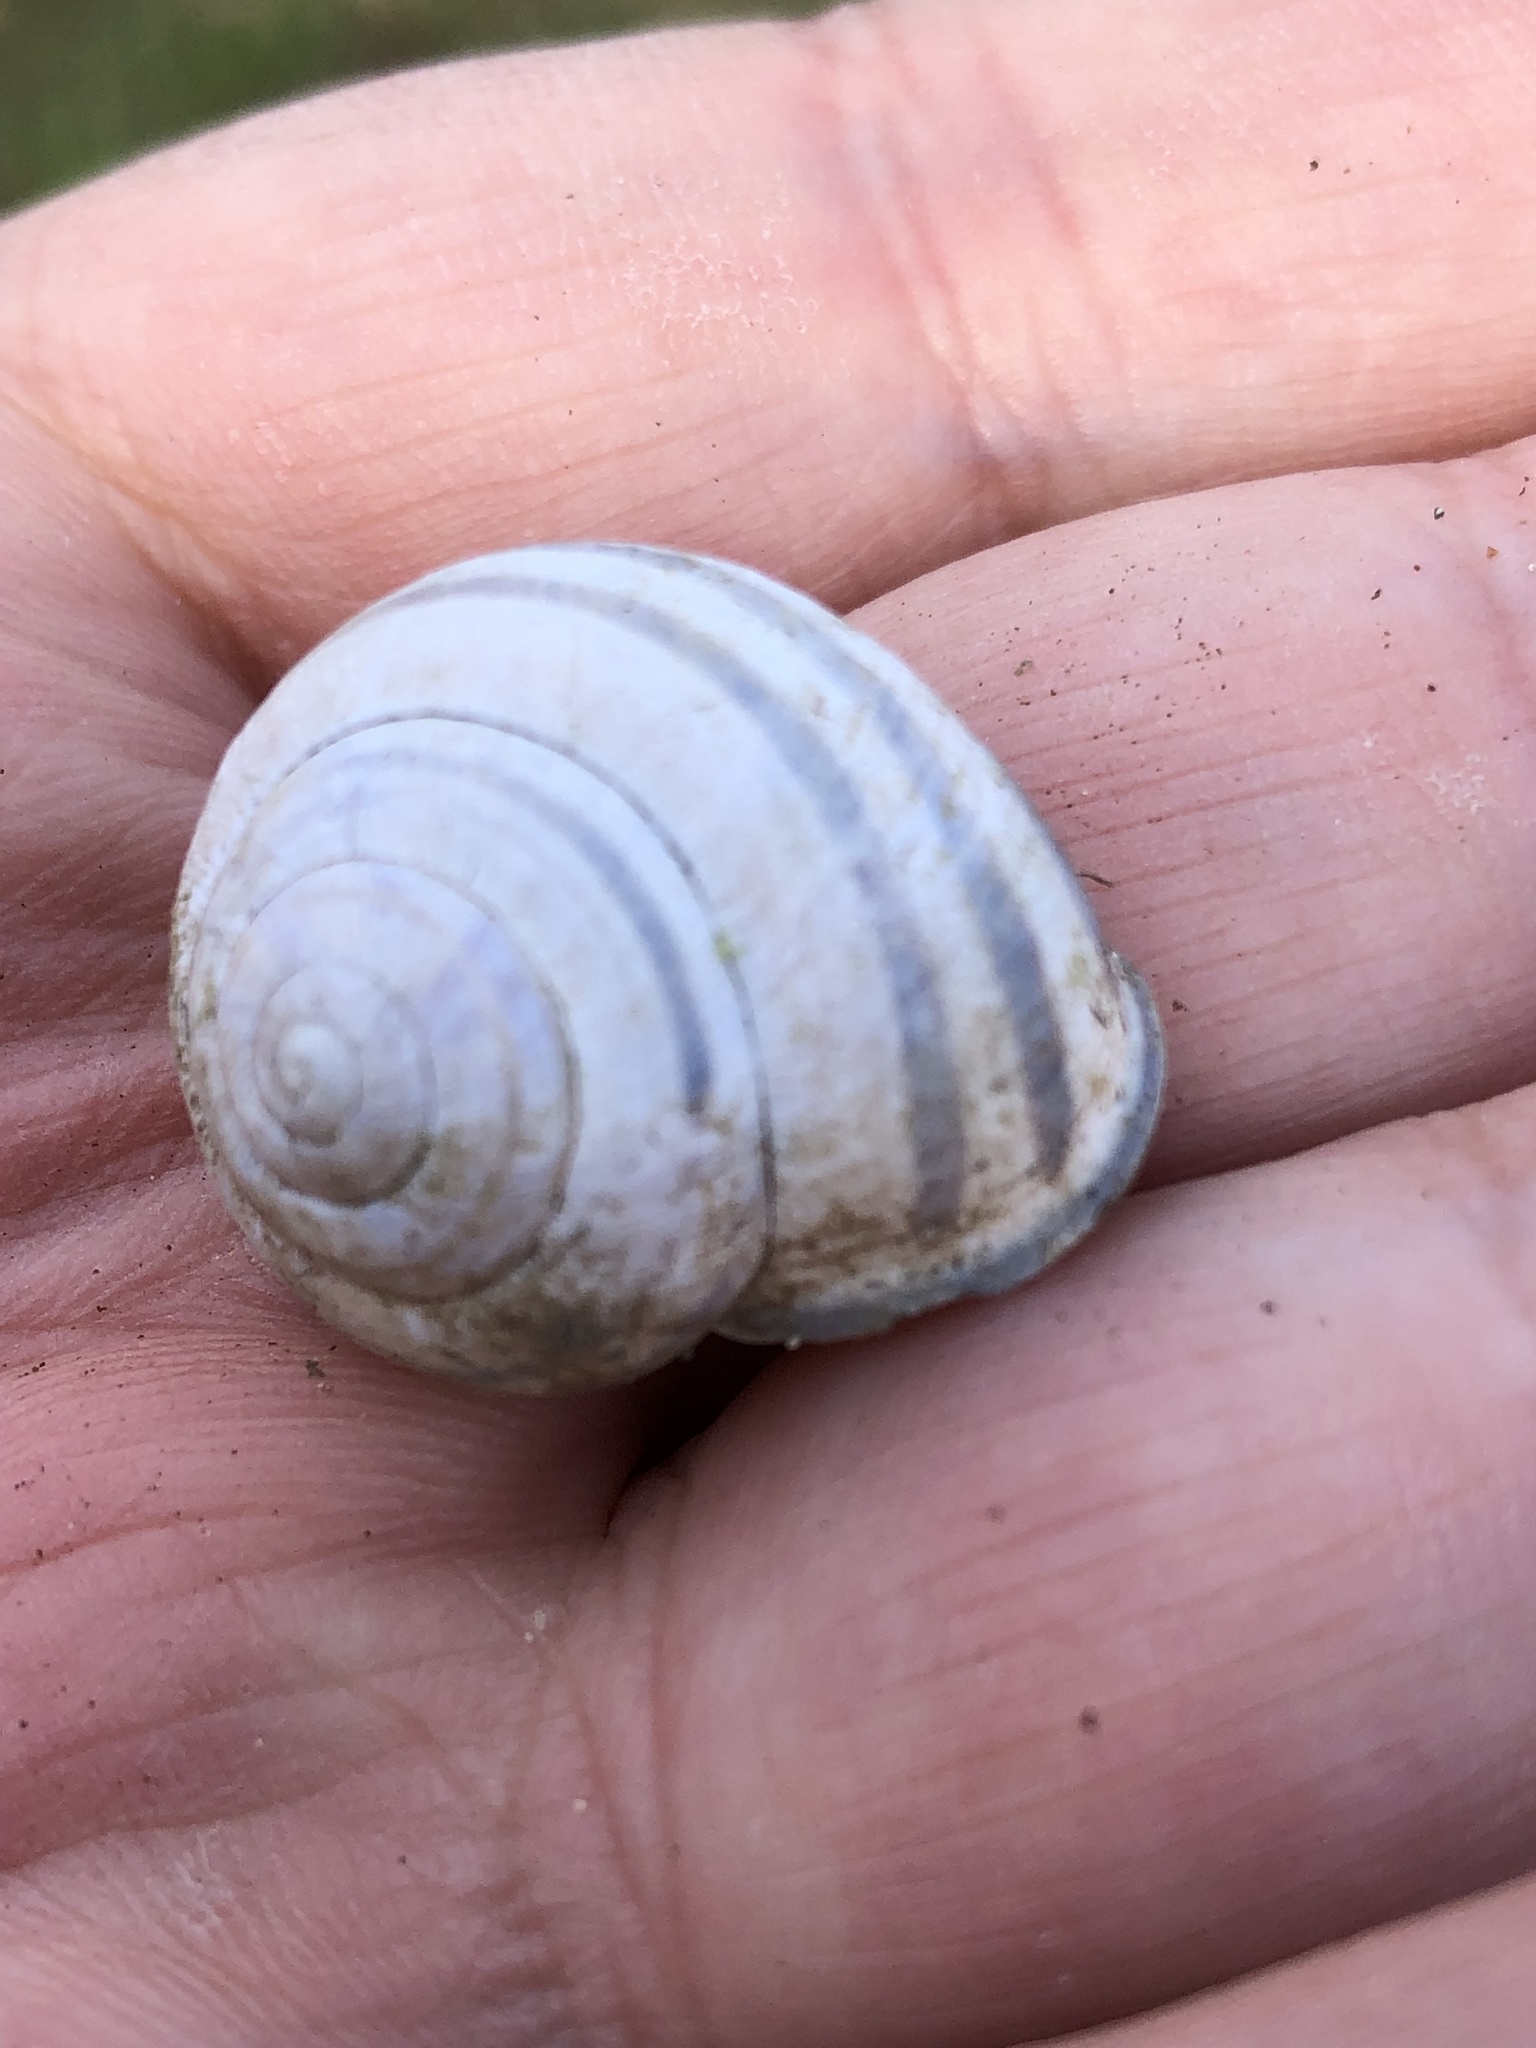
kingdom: Animalia
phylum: Mollusca
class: Gastropoda
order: Stylommatophora
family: Helicidae
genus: Cepaea
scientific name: Cepaea nemoralis
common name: Grovesnail
